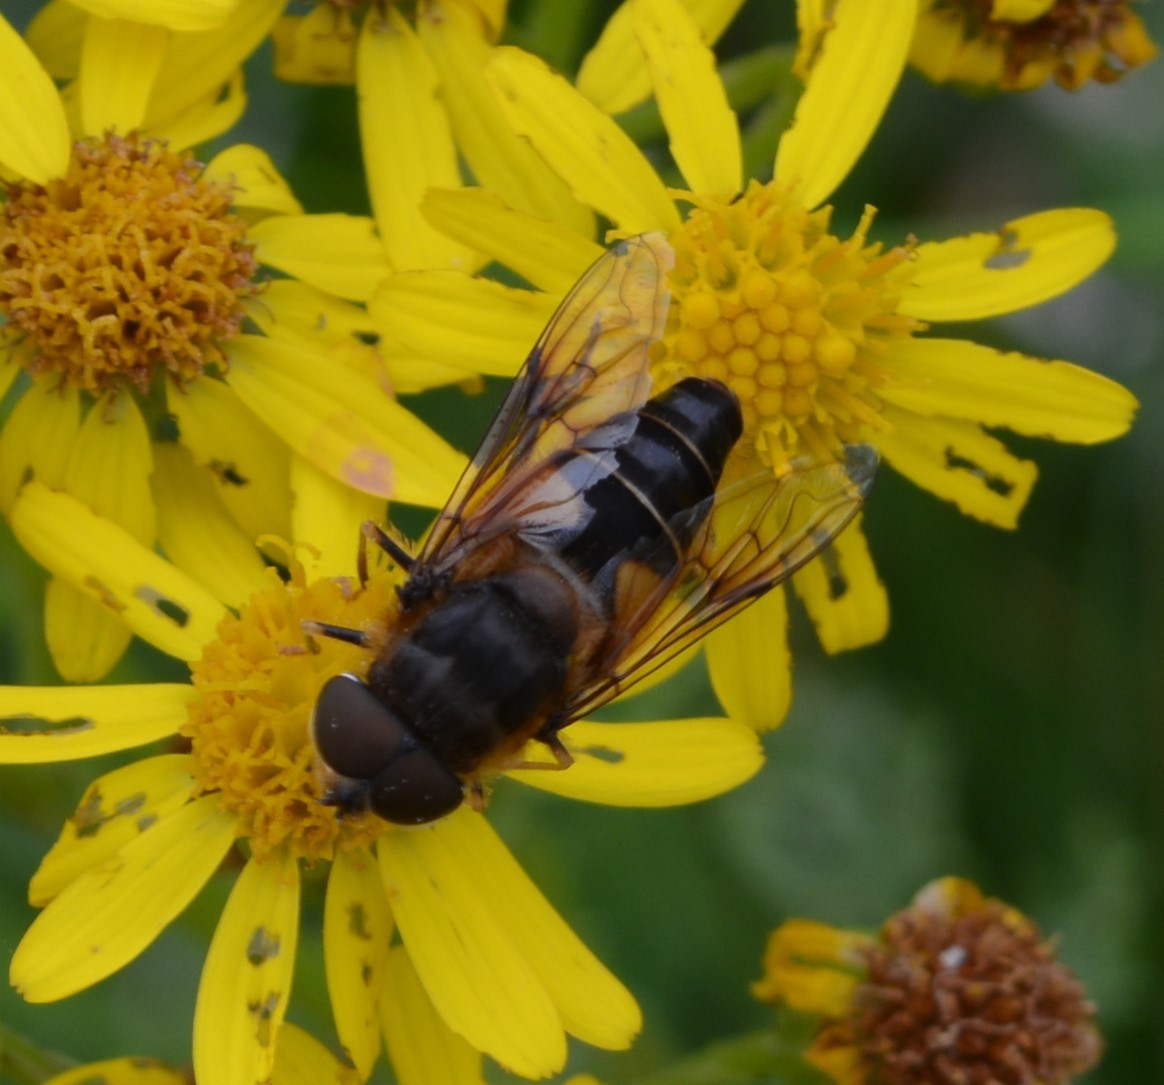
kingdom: Animalia
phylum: Arthropoda
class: Insecta
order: Diptera
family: Syrphidae
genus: Eristalis
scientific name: Eristalis pertinax
